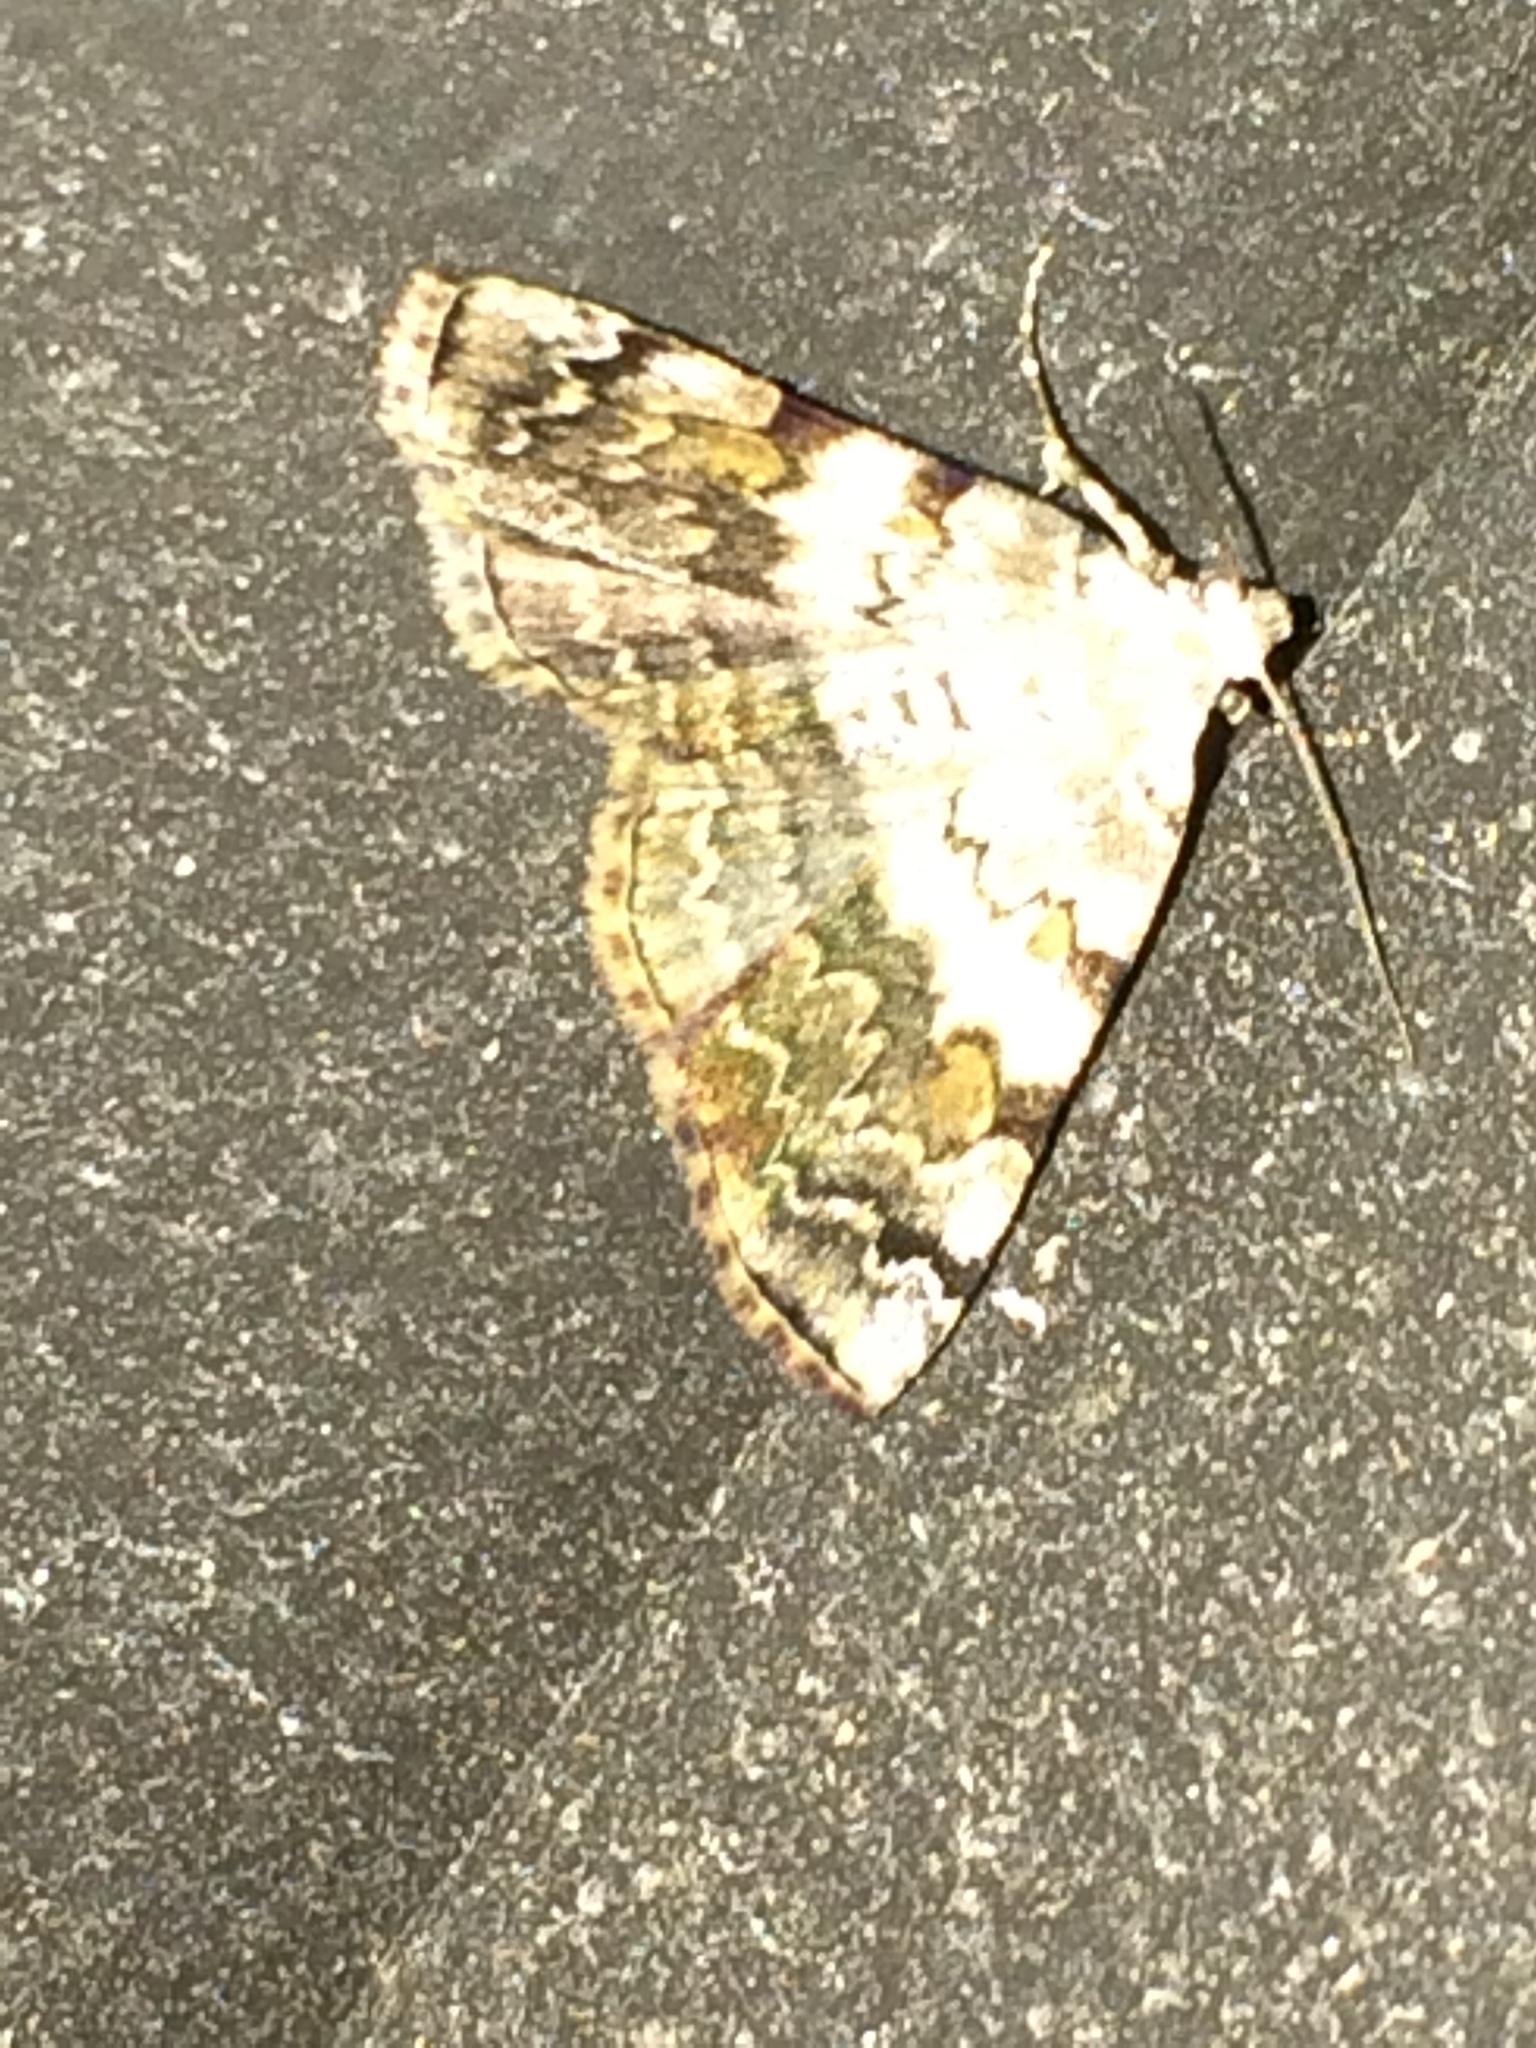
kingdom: Animalia
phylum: Arthropoda
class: Insecta
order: Lepidoptera
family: Erebidae
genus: Idia
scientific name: Idia americalis
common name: American idia moth
